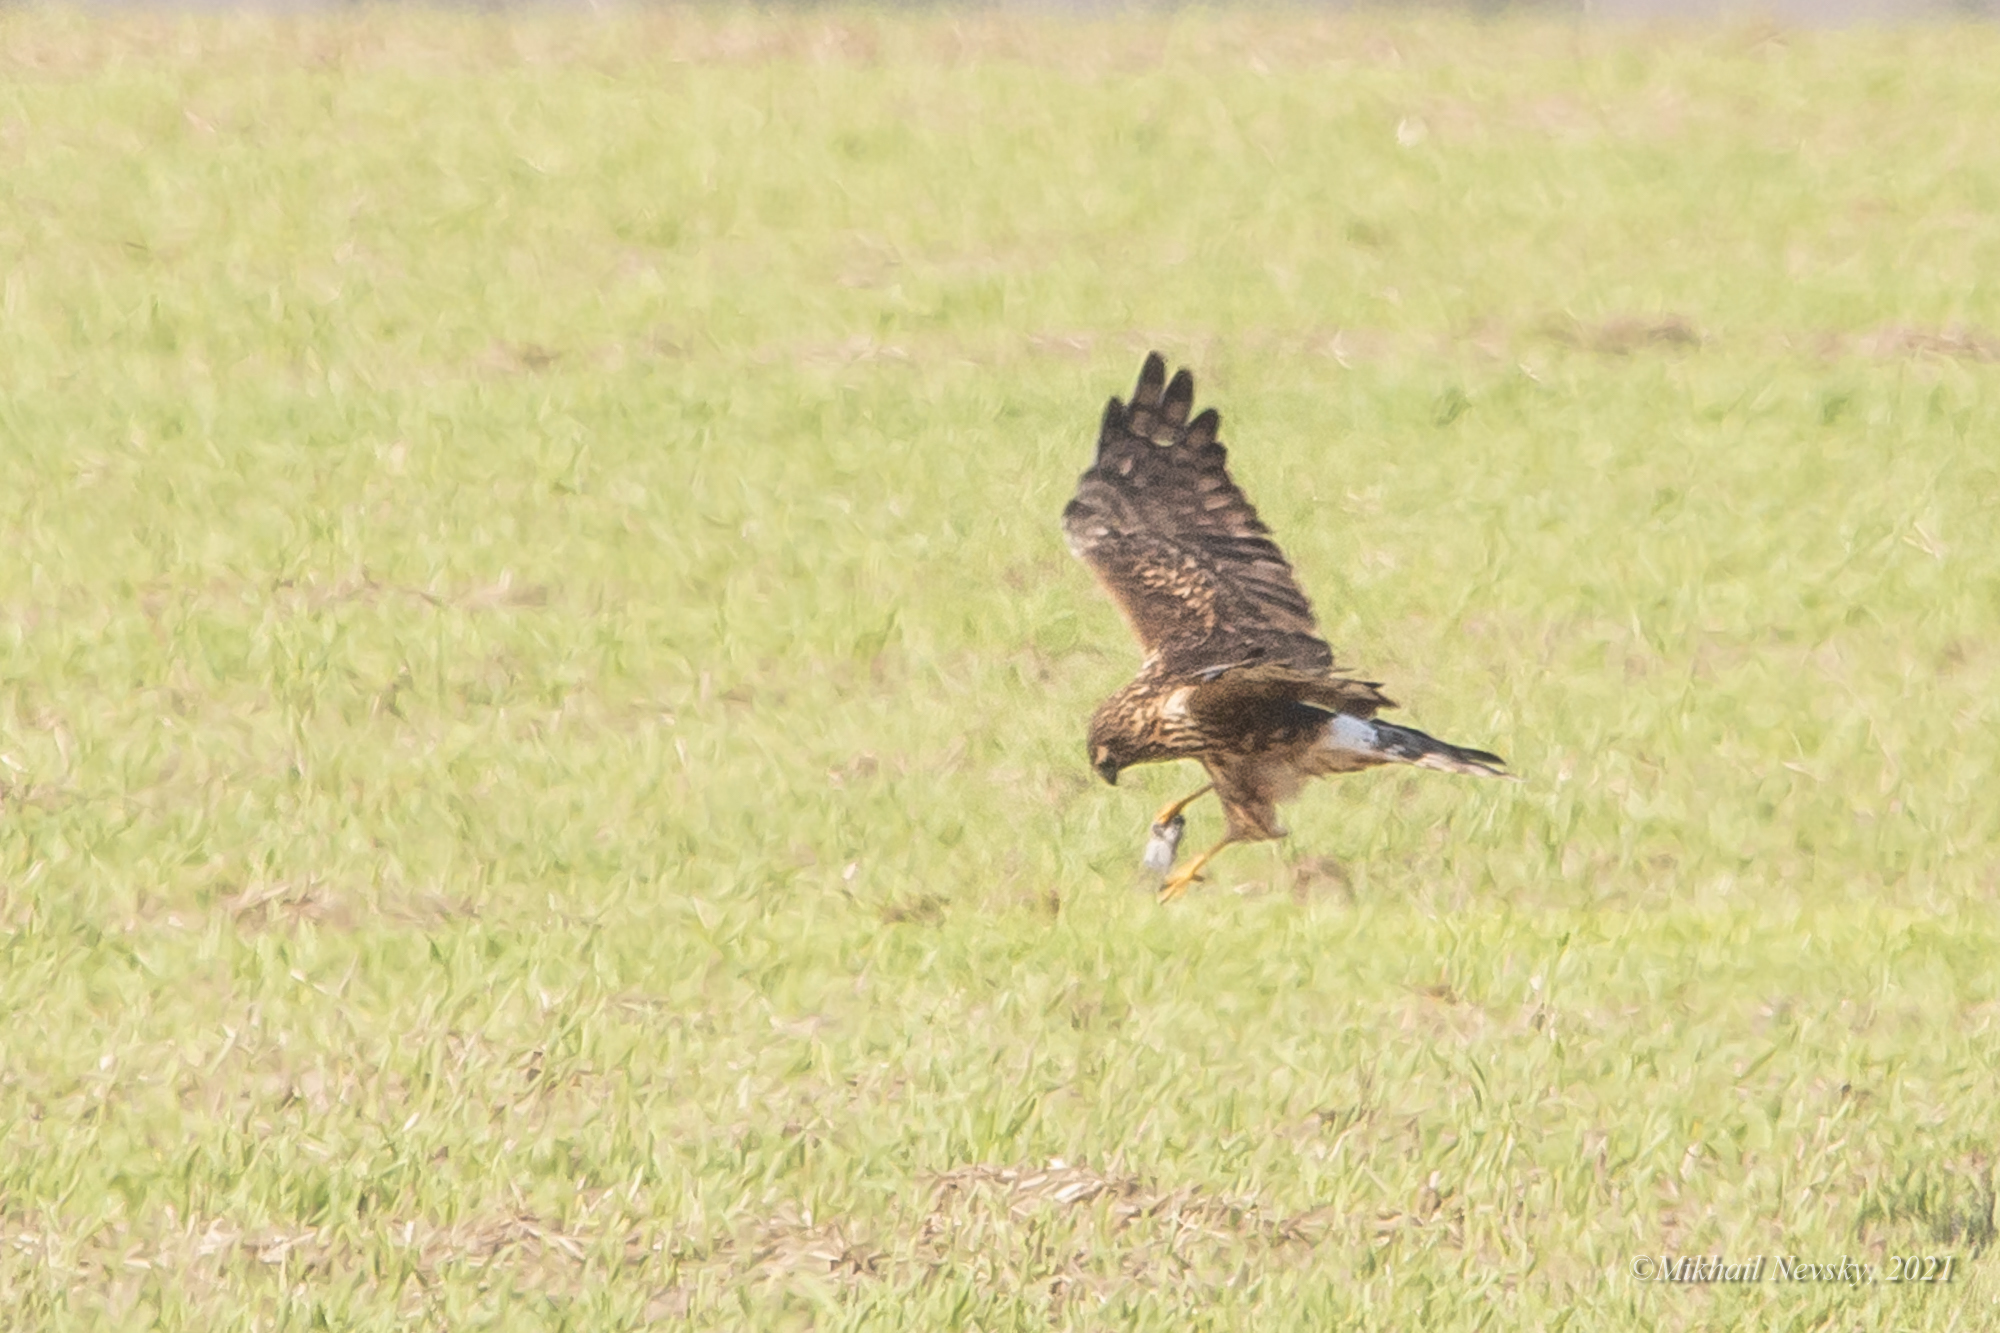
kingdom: Animalia
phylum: Chordata
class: Aves
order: Accipitriformes
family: Accipitridae
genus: Circus
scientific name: Circus cyaneus
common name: Hen harrier
